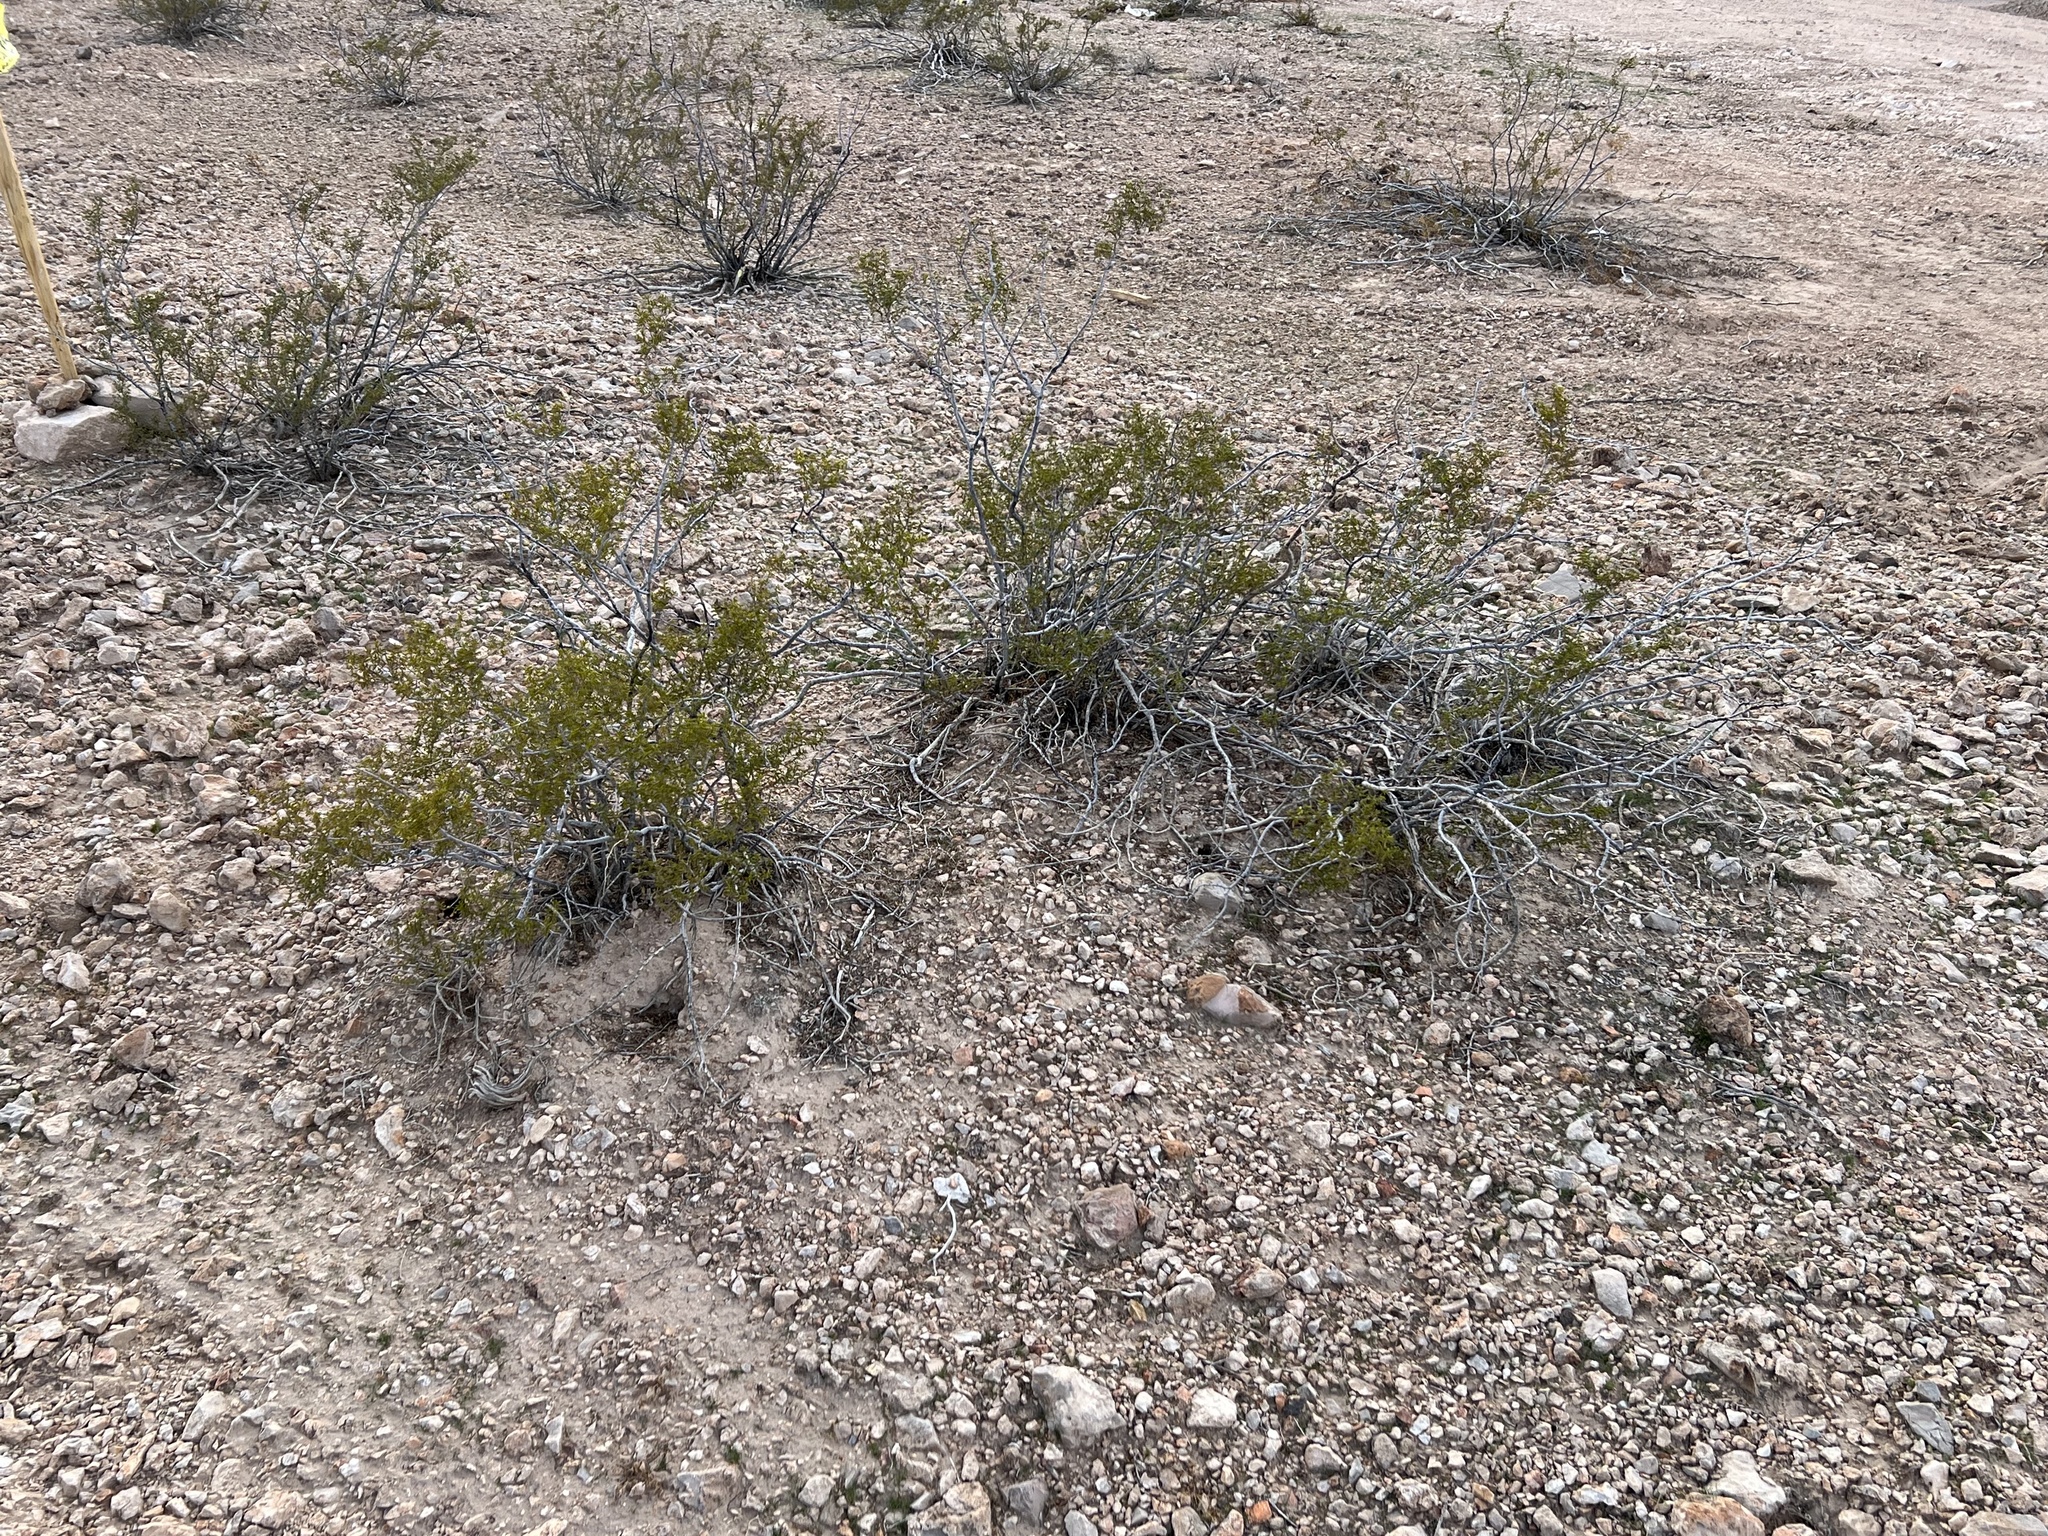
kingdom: Plantae
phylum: Tracheophyta
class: Magnoliopsida
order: Zygophyllales
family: Zygophyllaceae
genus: Larrea
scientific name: Larrea tridentata
